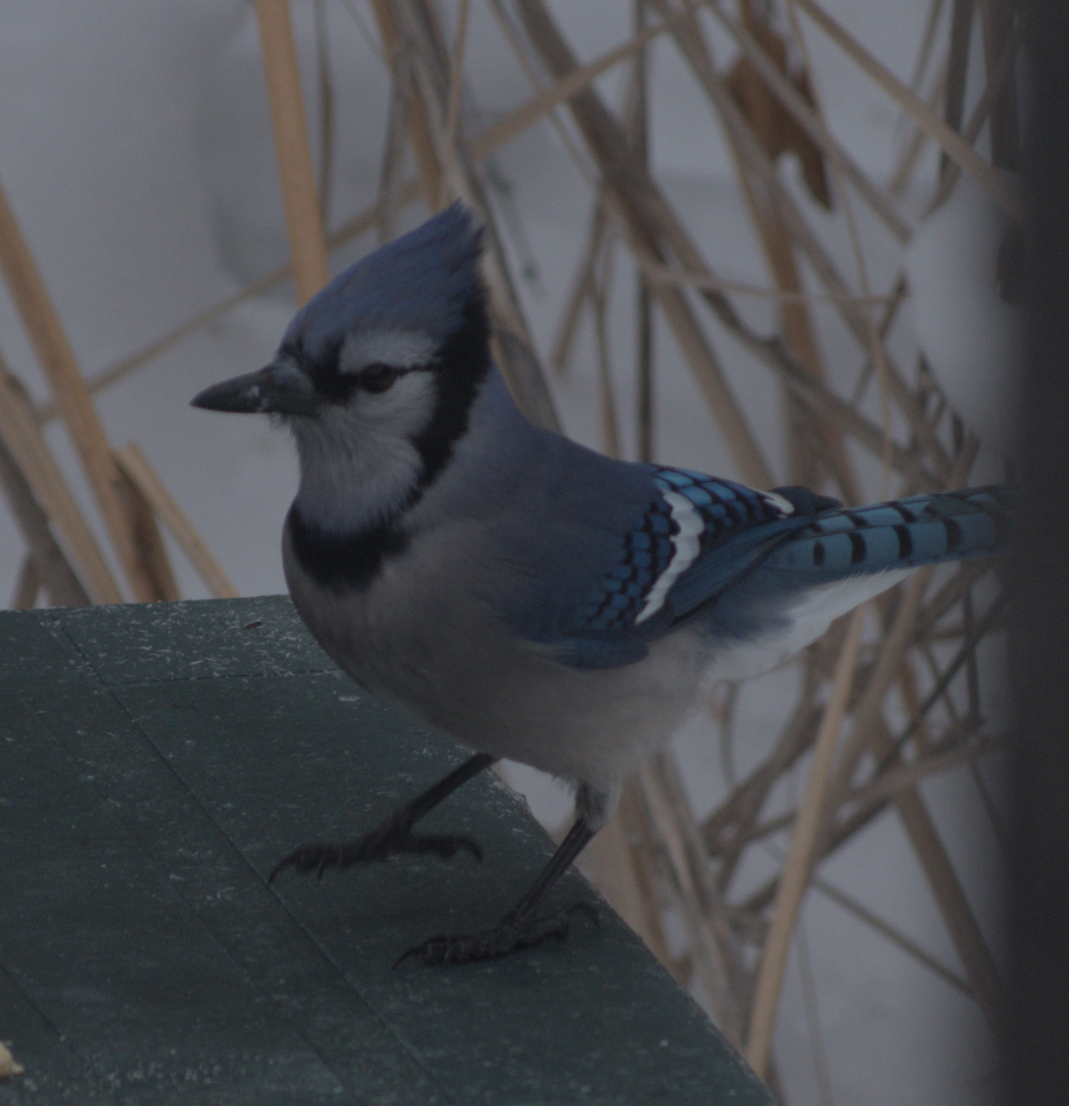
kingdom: Animalia
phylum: Chordata
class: Aves
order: Passeriformes
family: Corvidae
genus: Cyanocitta
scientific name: Cyanocitta cristata
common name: Blue jay
